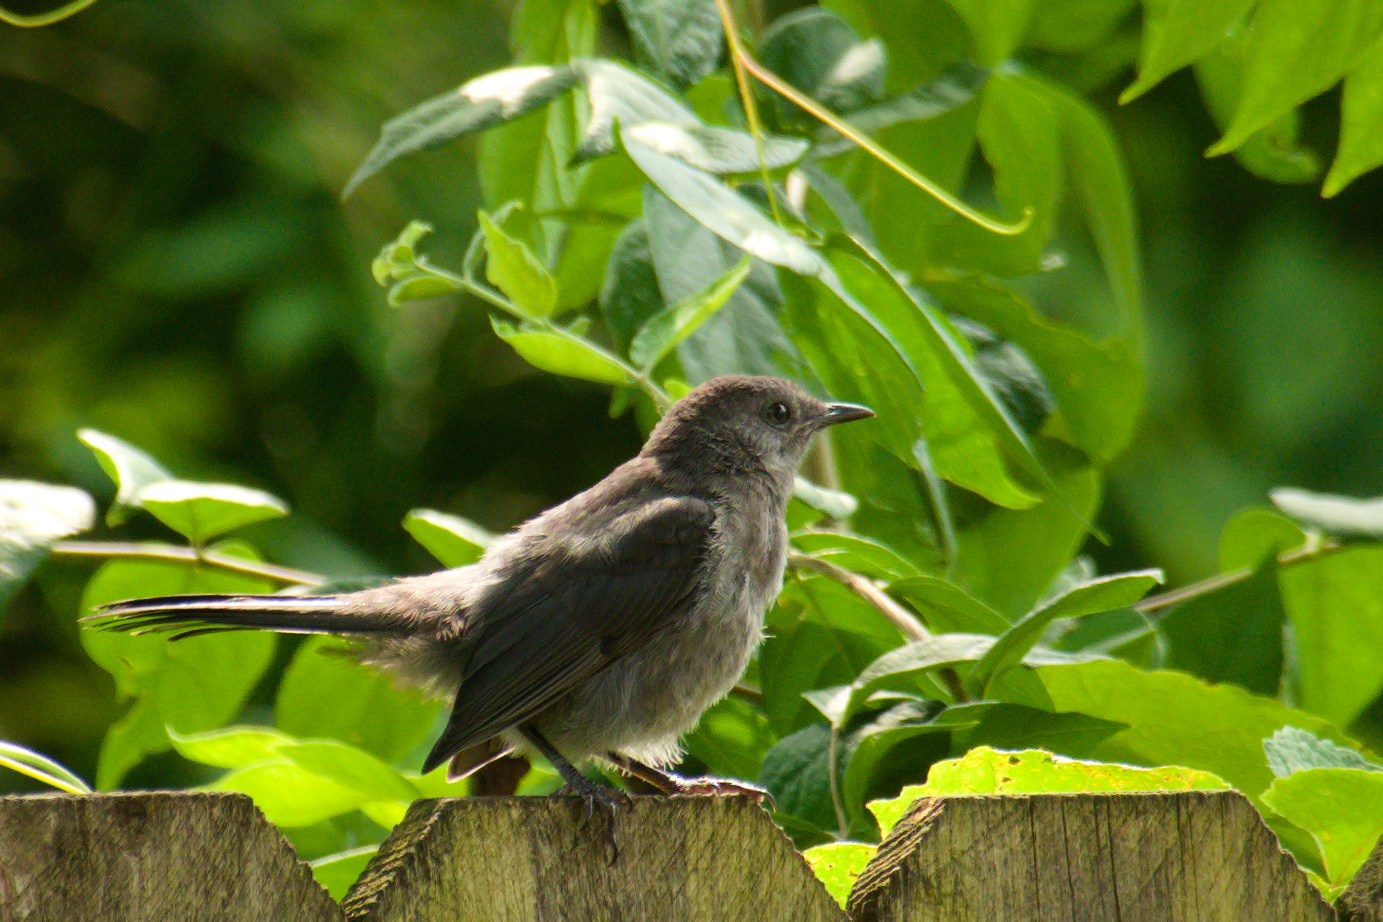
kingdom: Animalia
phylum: Chordata
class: Aves
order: Passeriformes
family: Mimidae
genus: Dumetella
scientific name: Dumetella carolinensis
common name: Gray catbird
